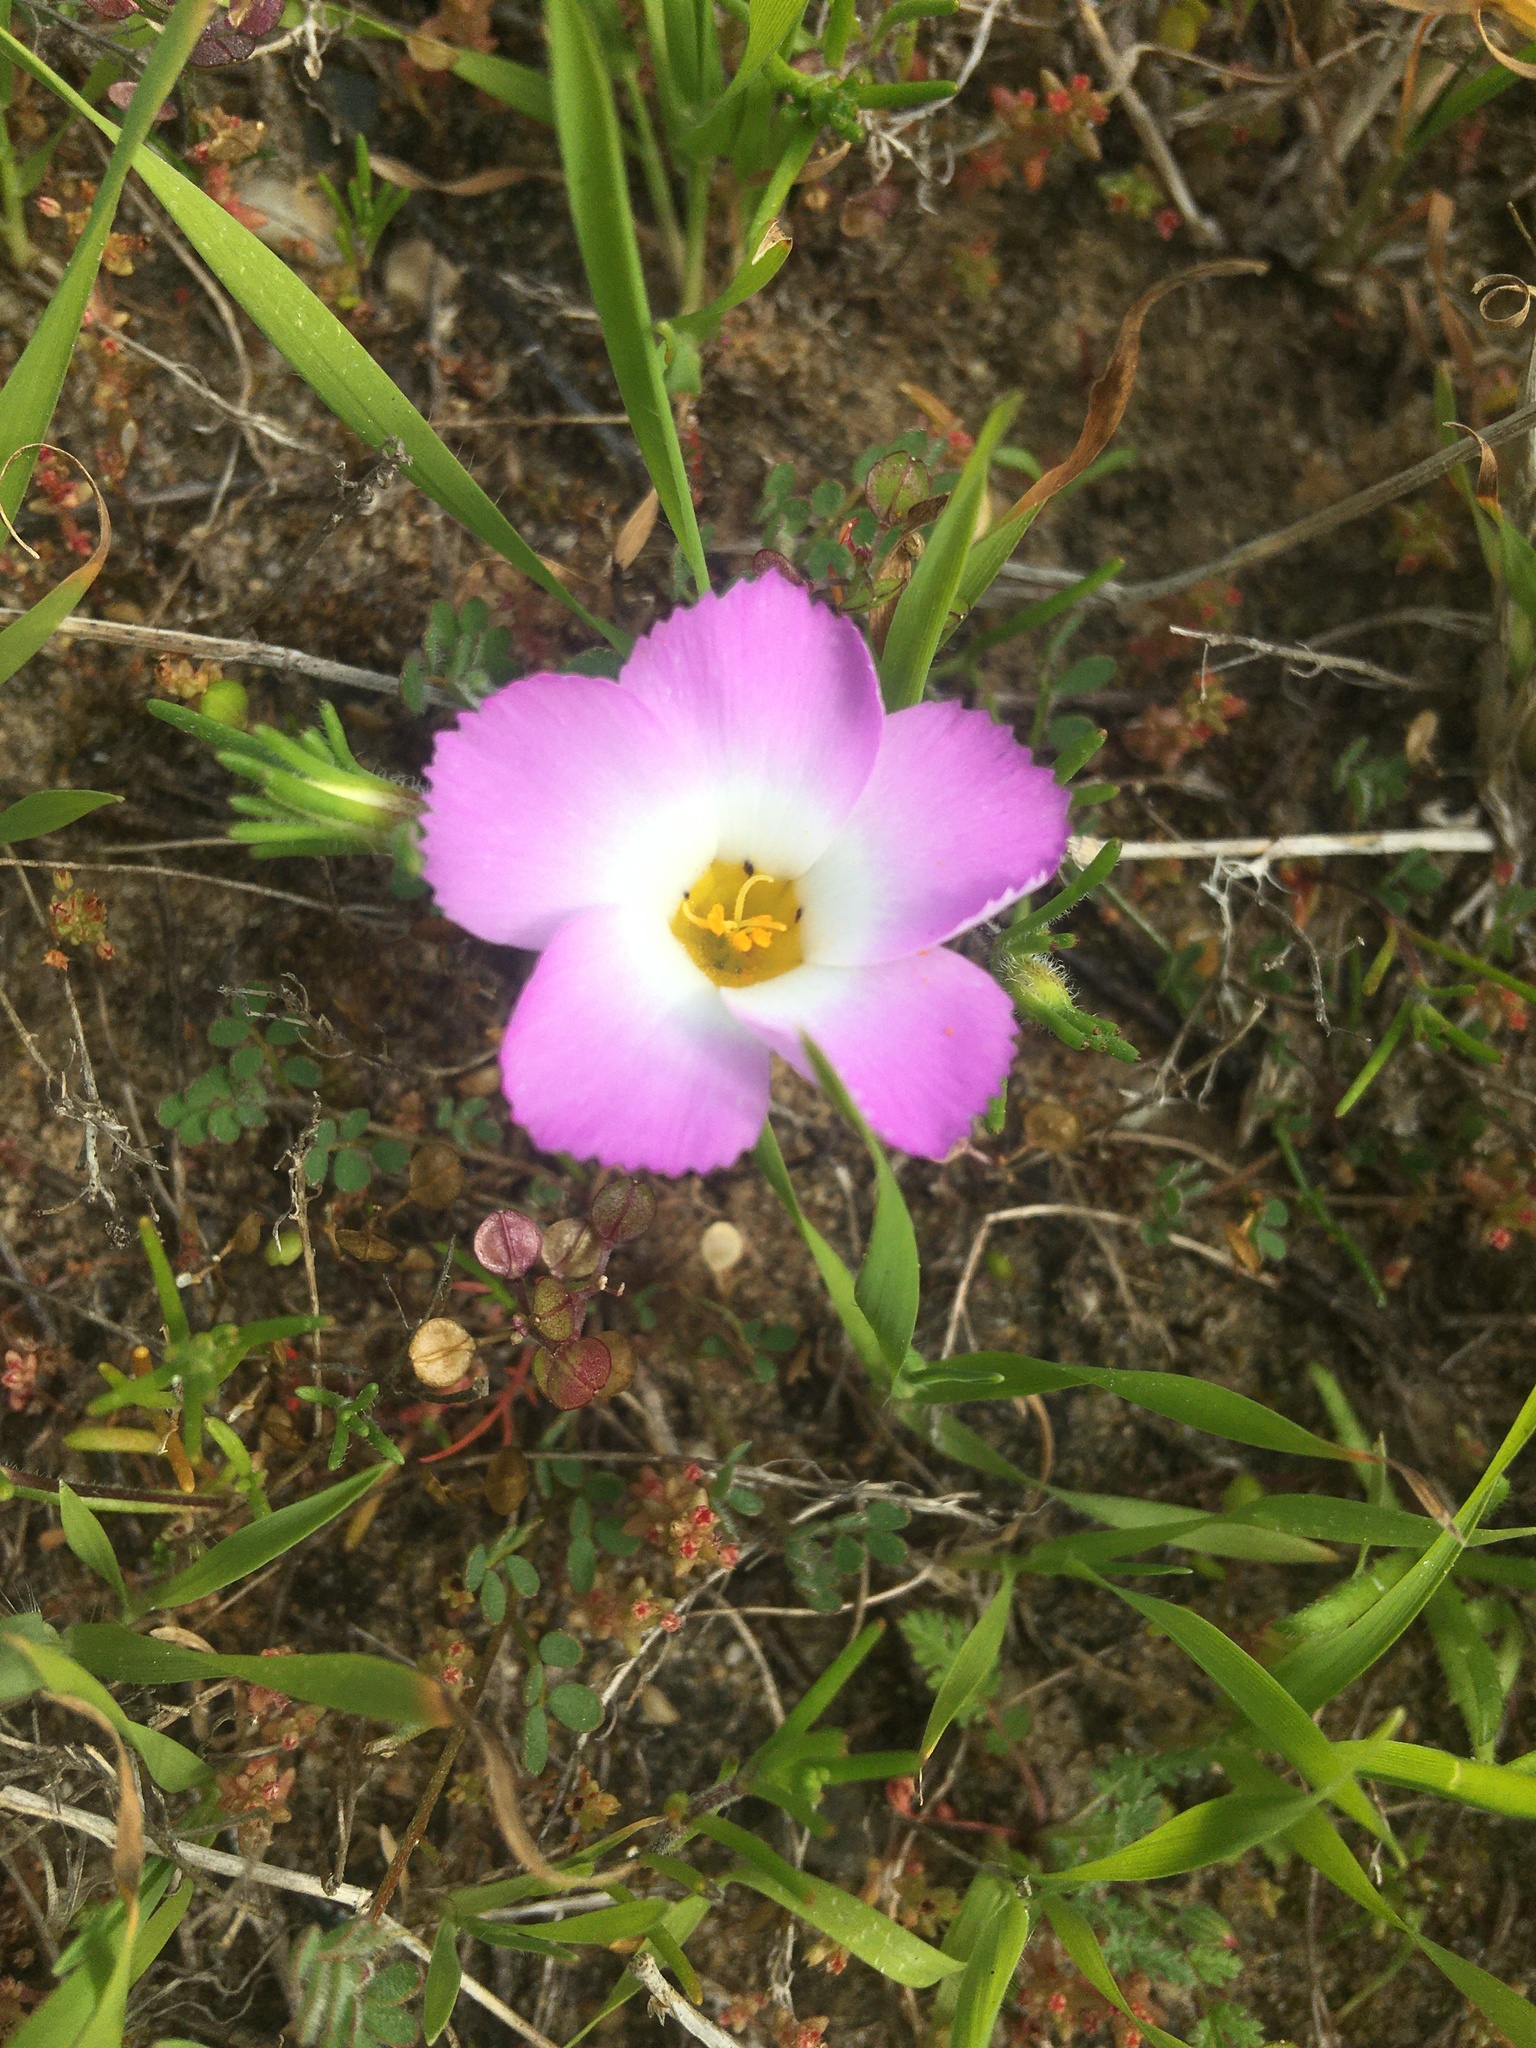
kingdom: Plantae
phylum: Tracheophyta
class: Magnoliopsida
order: Ericales
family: Polemoniaceae
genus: Linanthus
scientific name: Linanthus dianthiflorus
